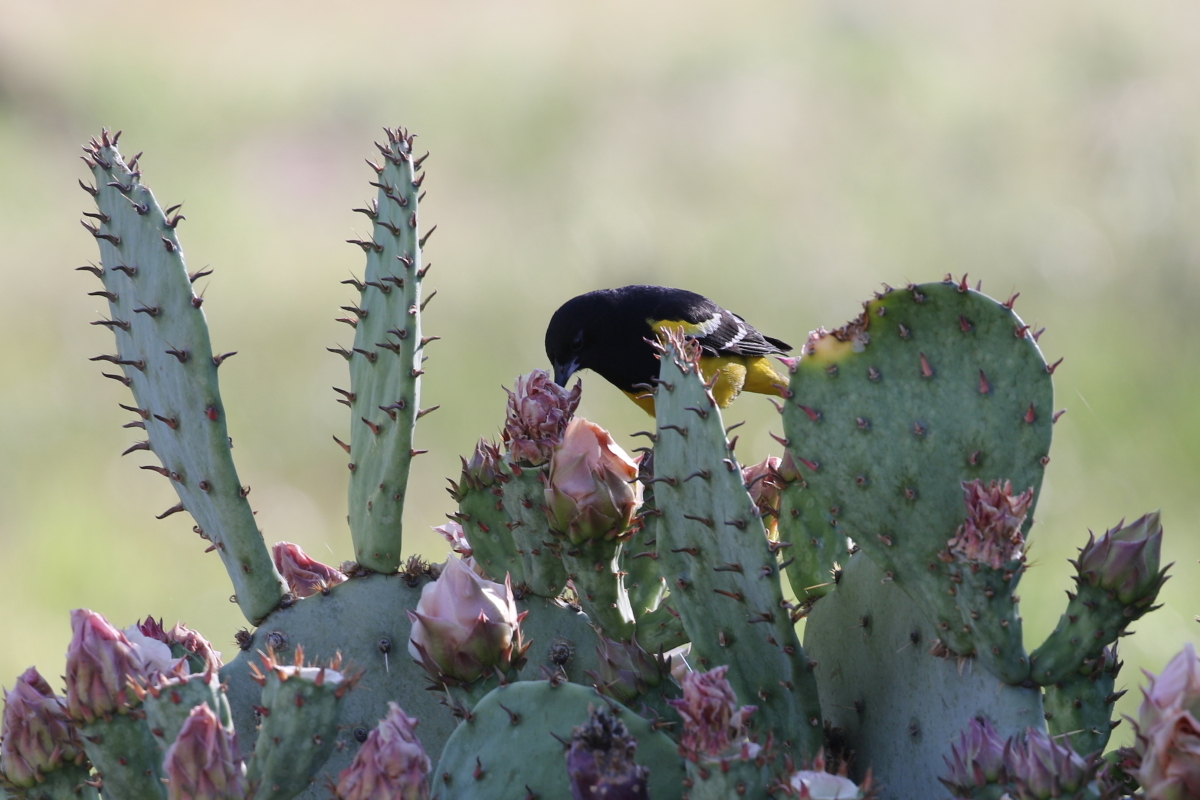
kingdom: Animalia
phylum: Chordata
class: Aves
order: Passeriformes
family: Icteridae
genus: Icterus
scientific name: Icterus parisorum
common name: Scott's oriole
